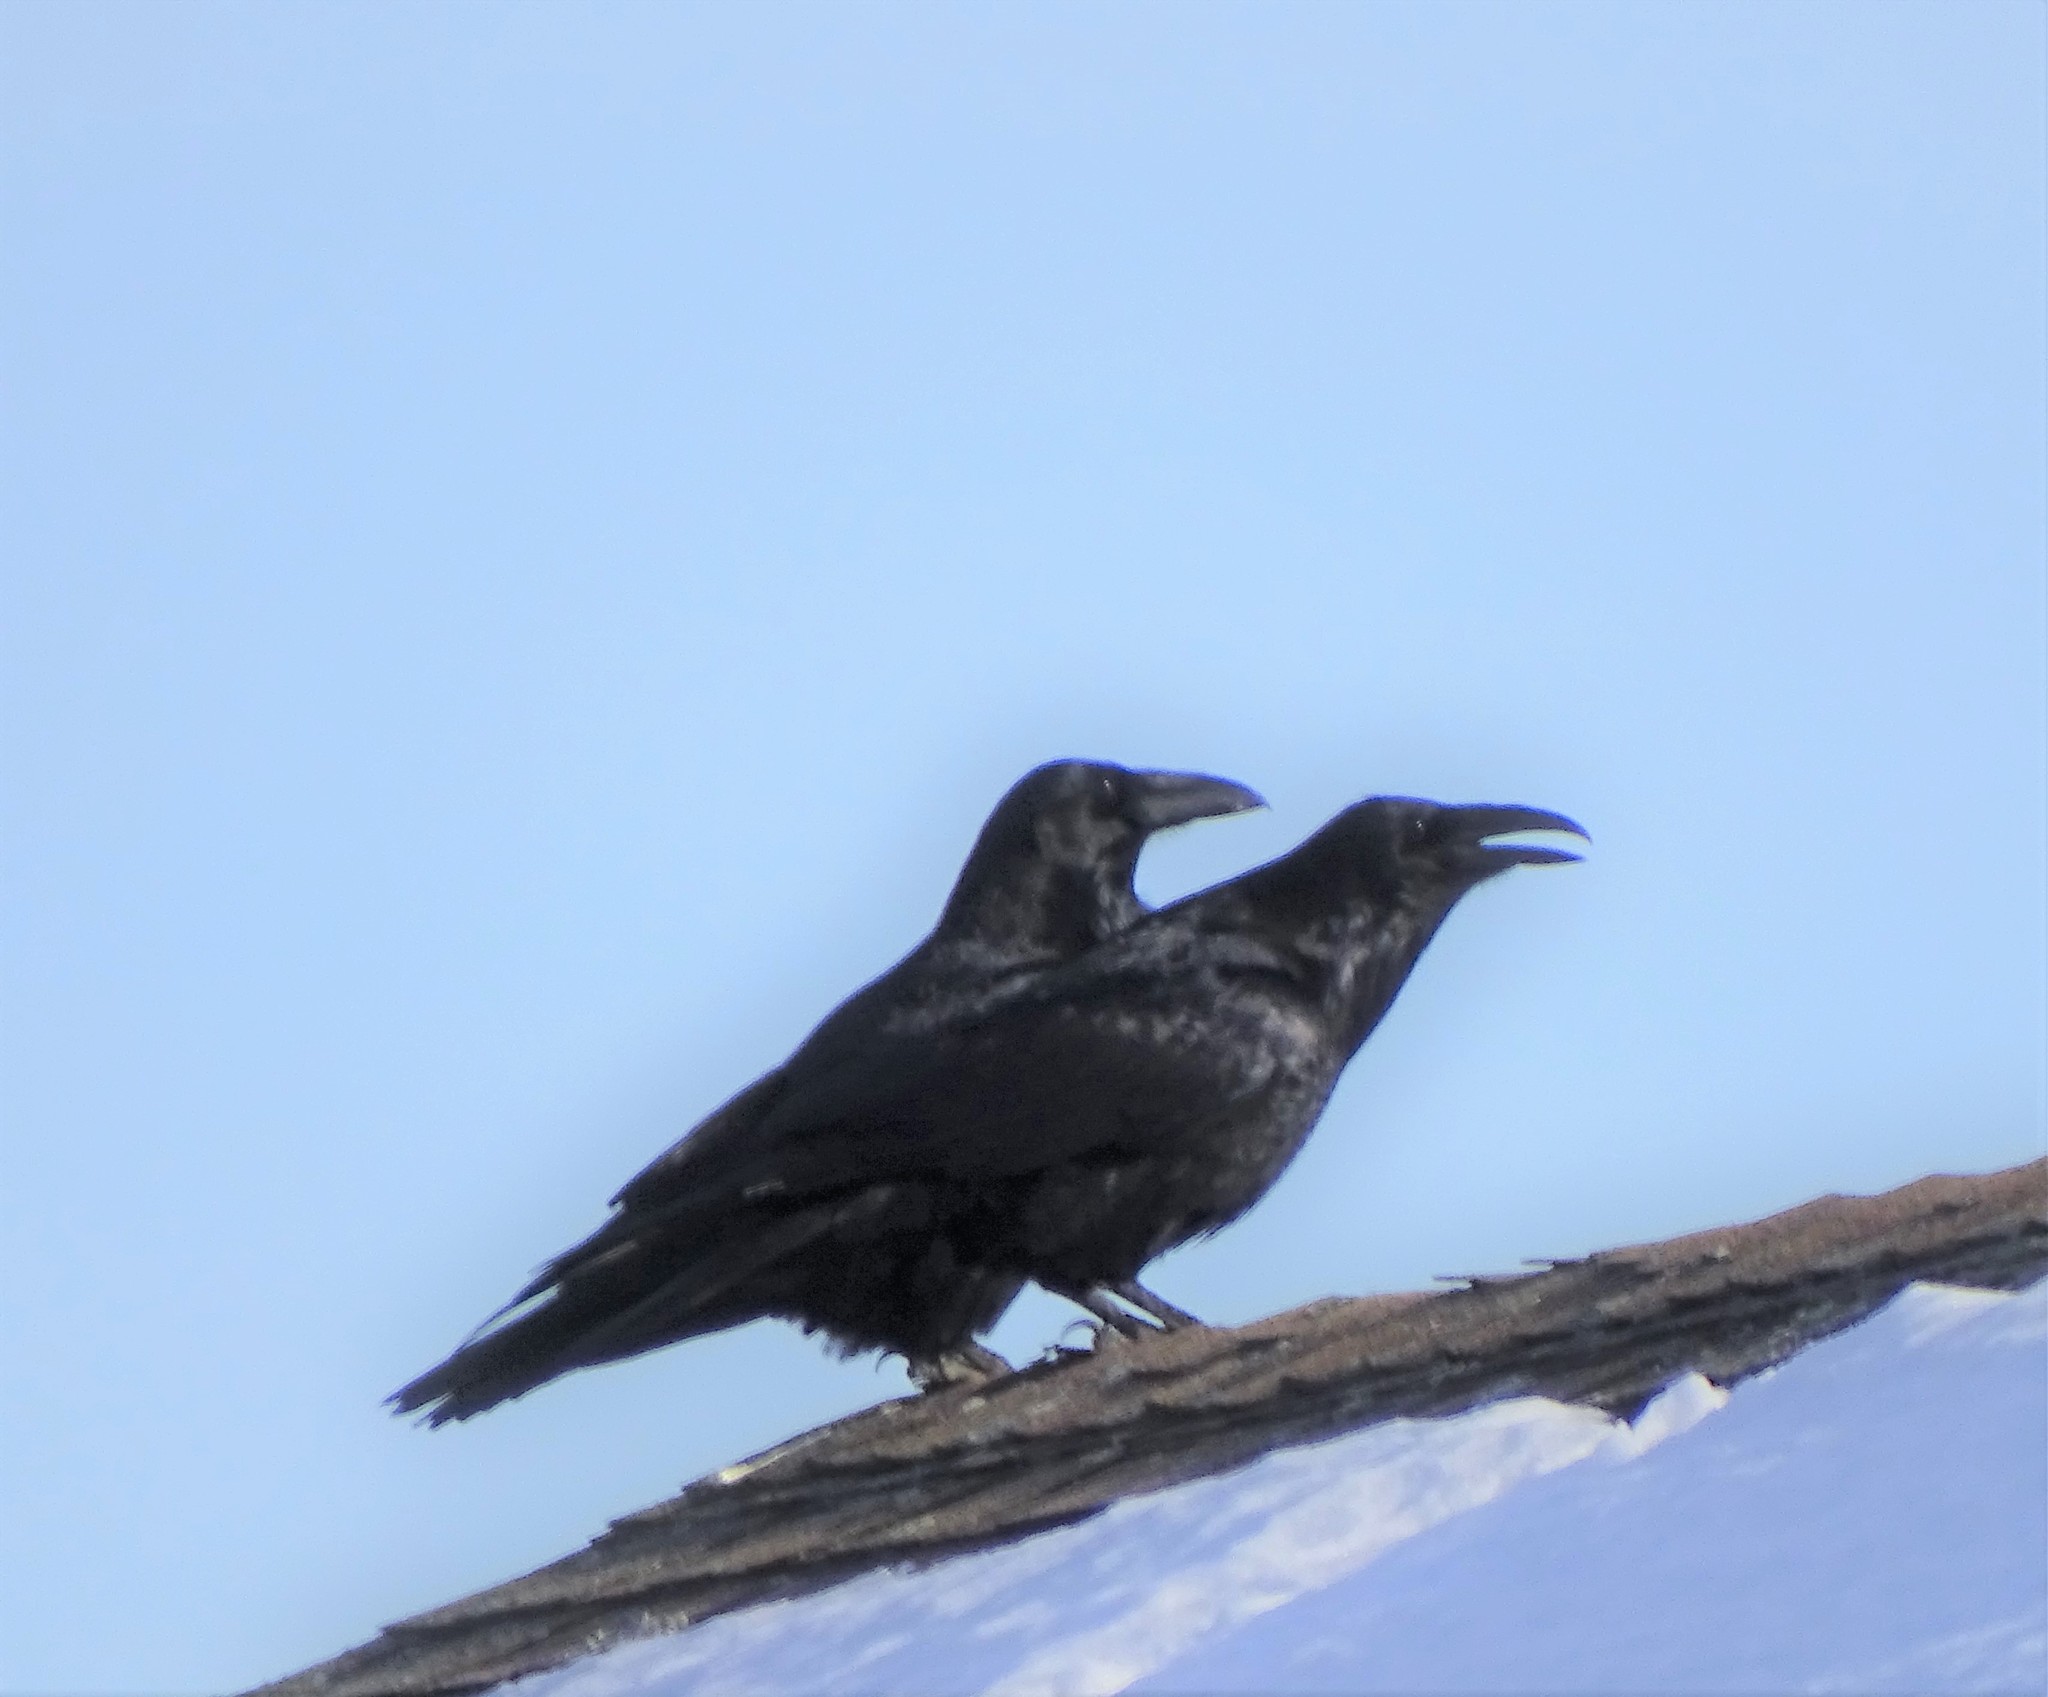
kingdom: Animalia
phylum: Chordata
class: Aves
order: Passeriformes
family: Corvidae
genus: Corvus
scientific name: Corvus corax
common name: Common raven
